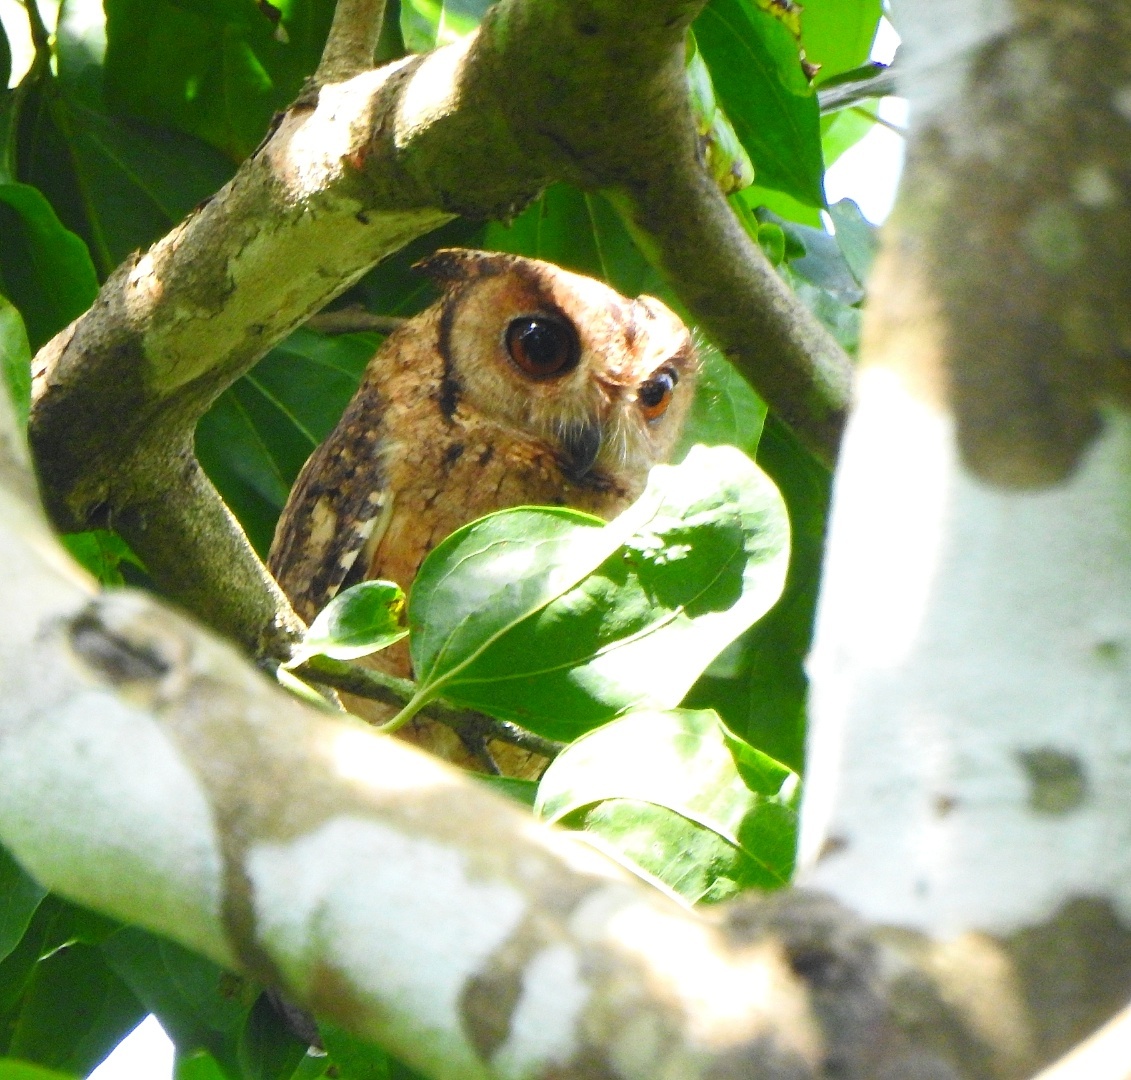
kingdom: Animalia
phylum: Chordata
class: Aves
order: Strigiformes
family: Strigidae
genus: Otus
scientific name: Otus bakkamoena
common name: Indian scops owl
